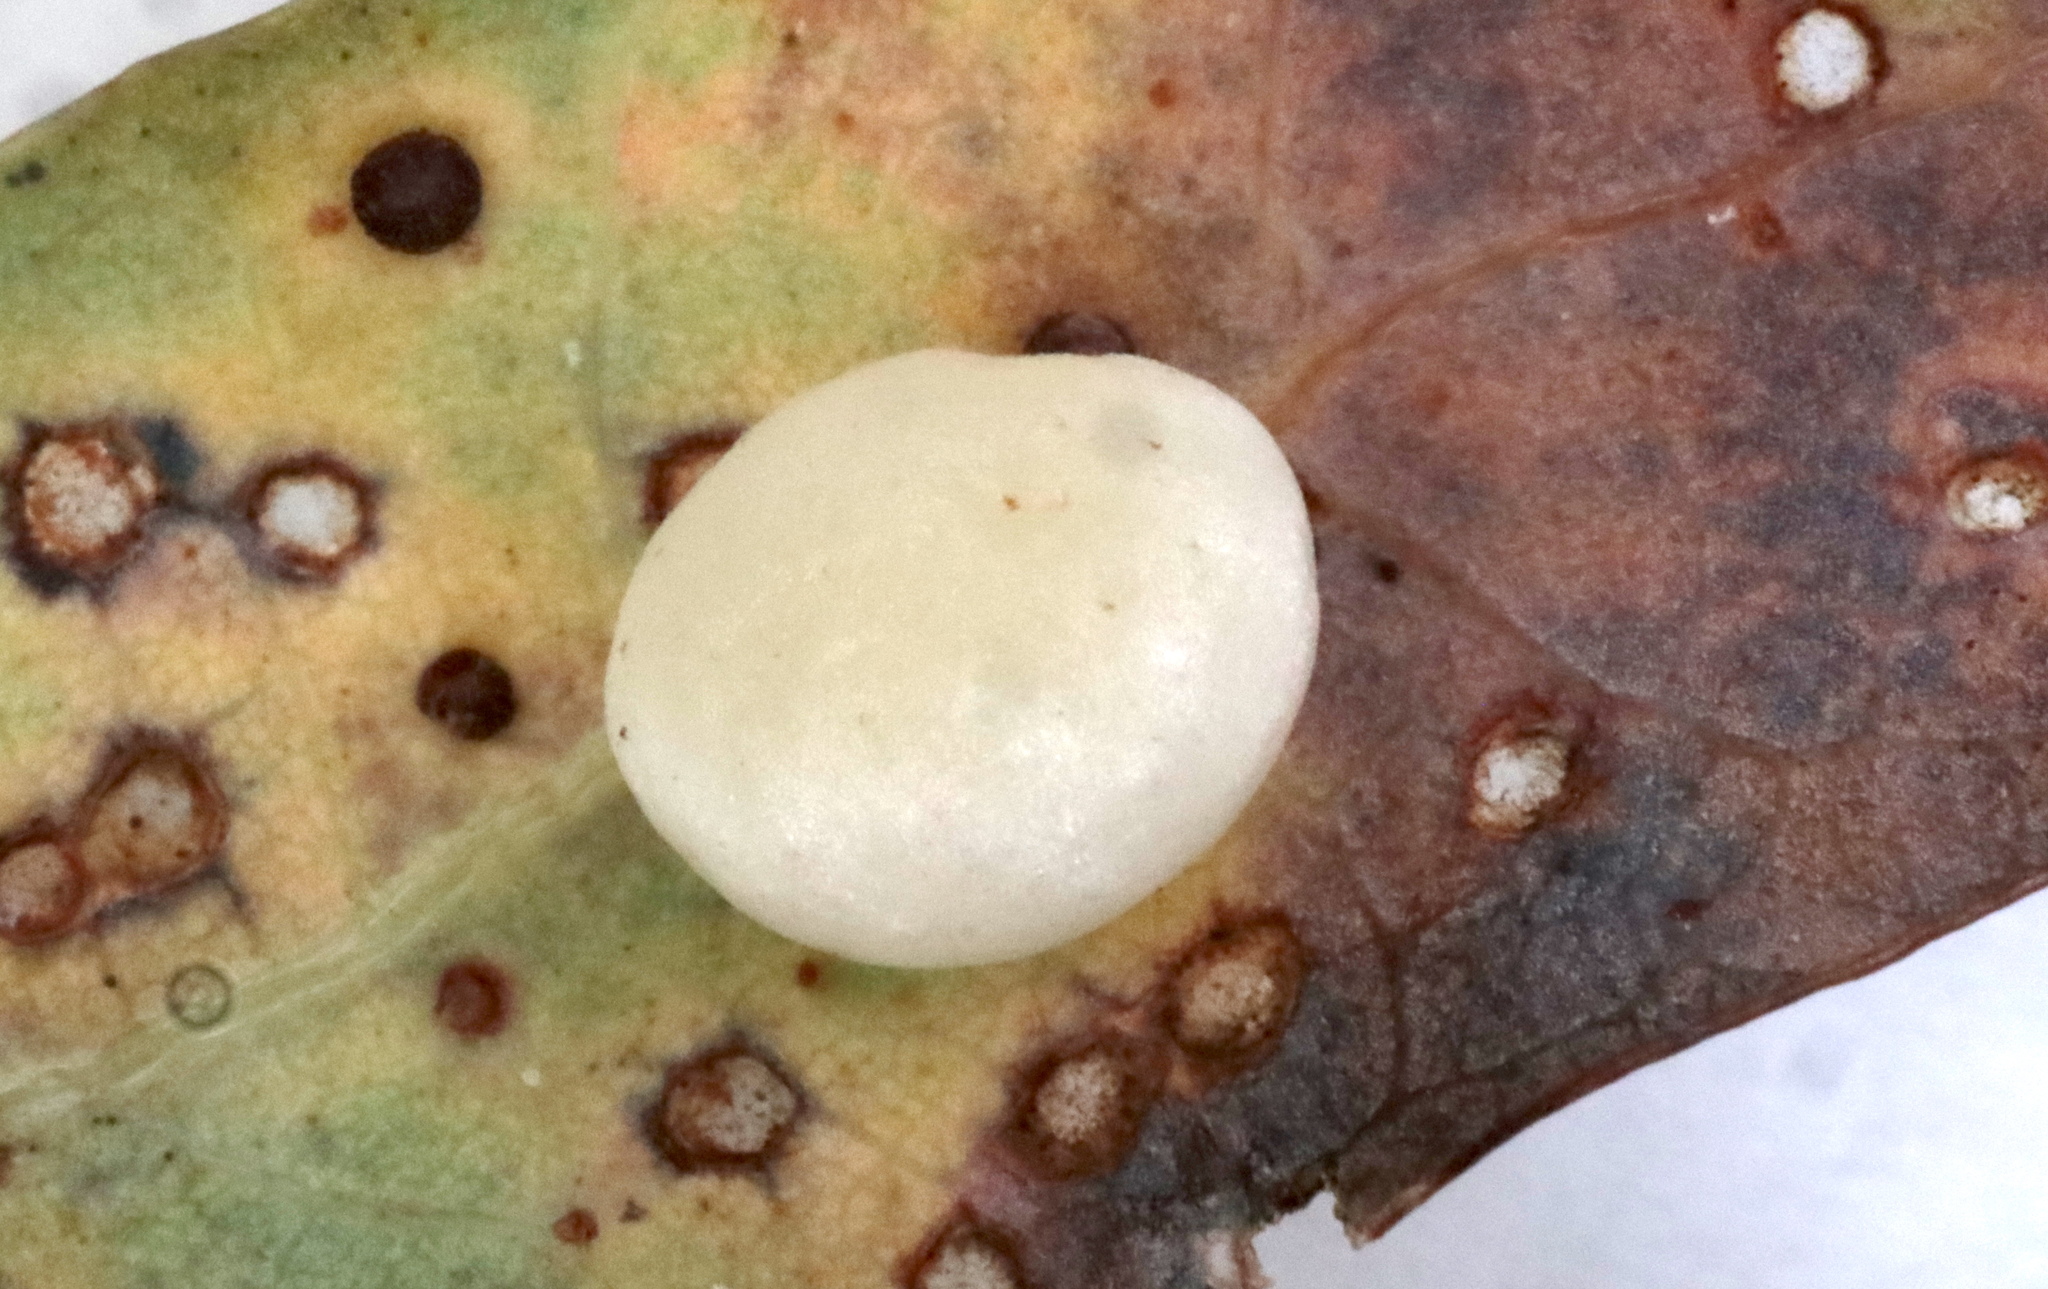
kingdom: Animalia
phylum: Arthropoda
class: Insecta
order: Hymenoptera
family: Cynipidae
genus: Phylloteras
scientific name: Phylloteras
